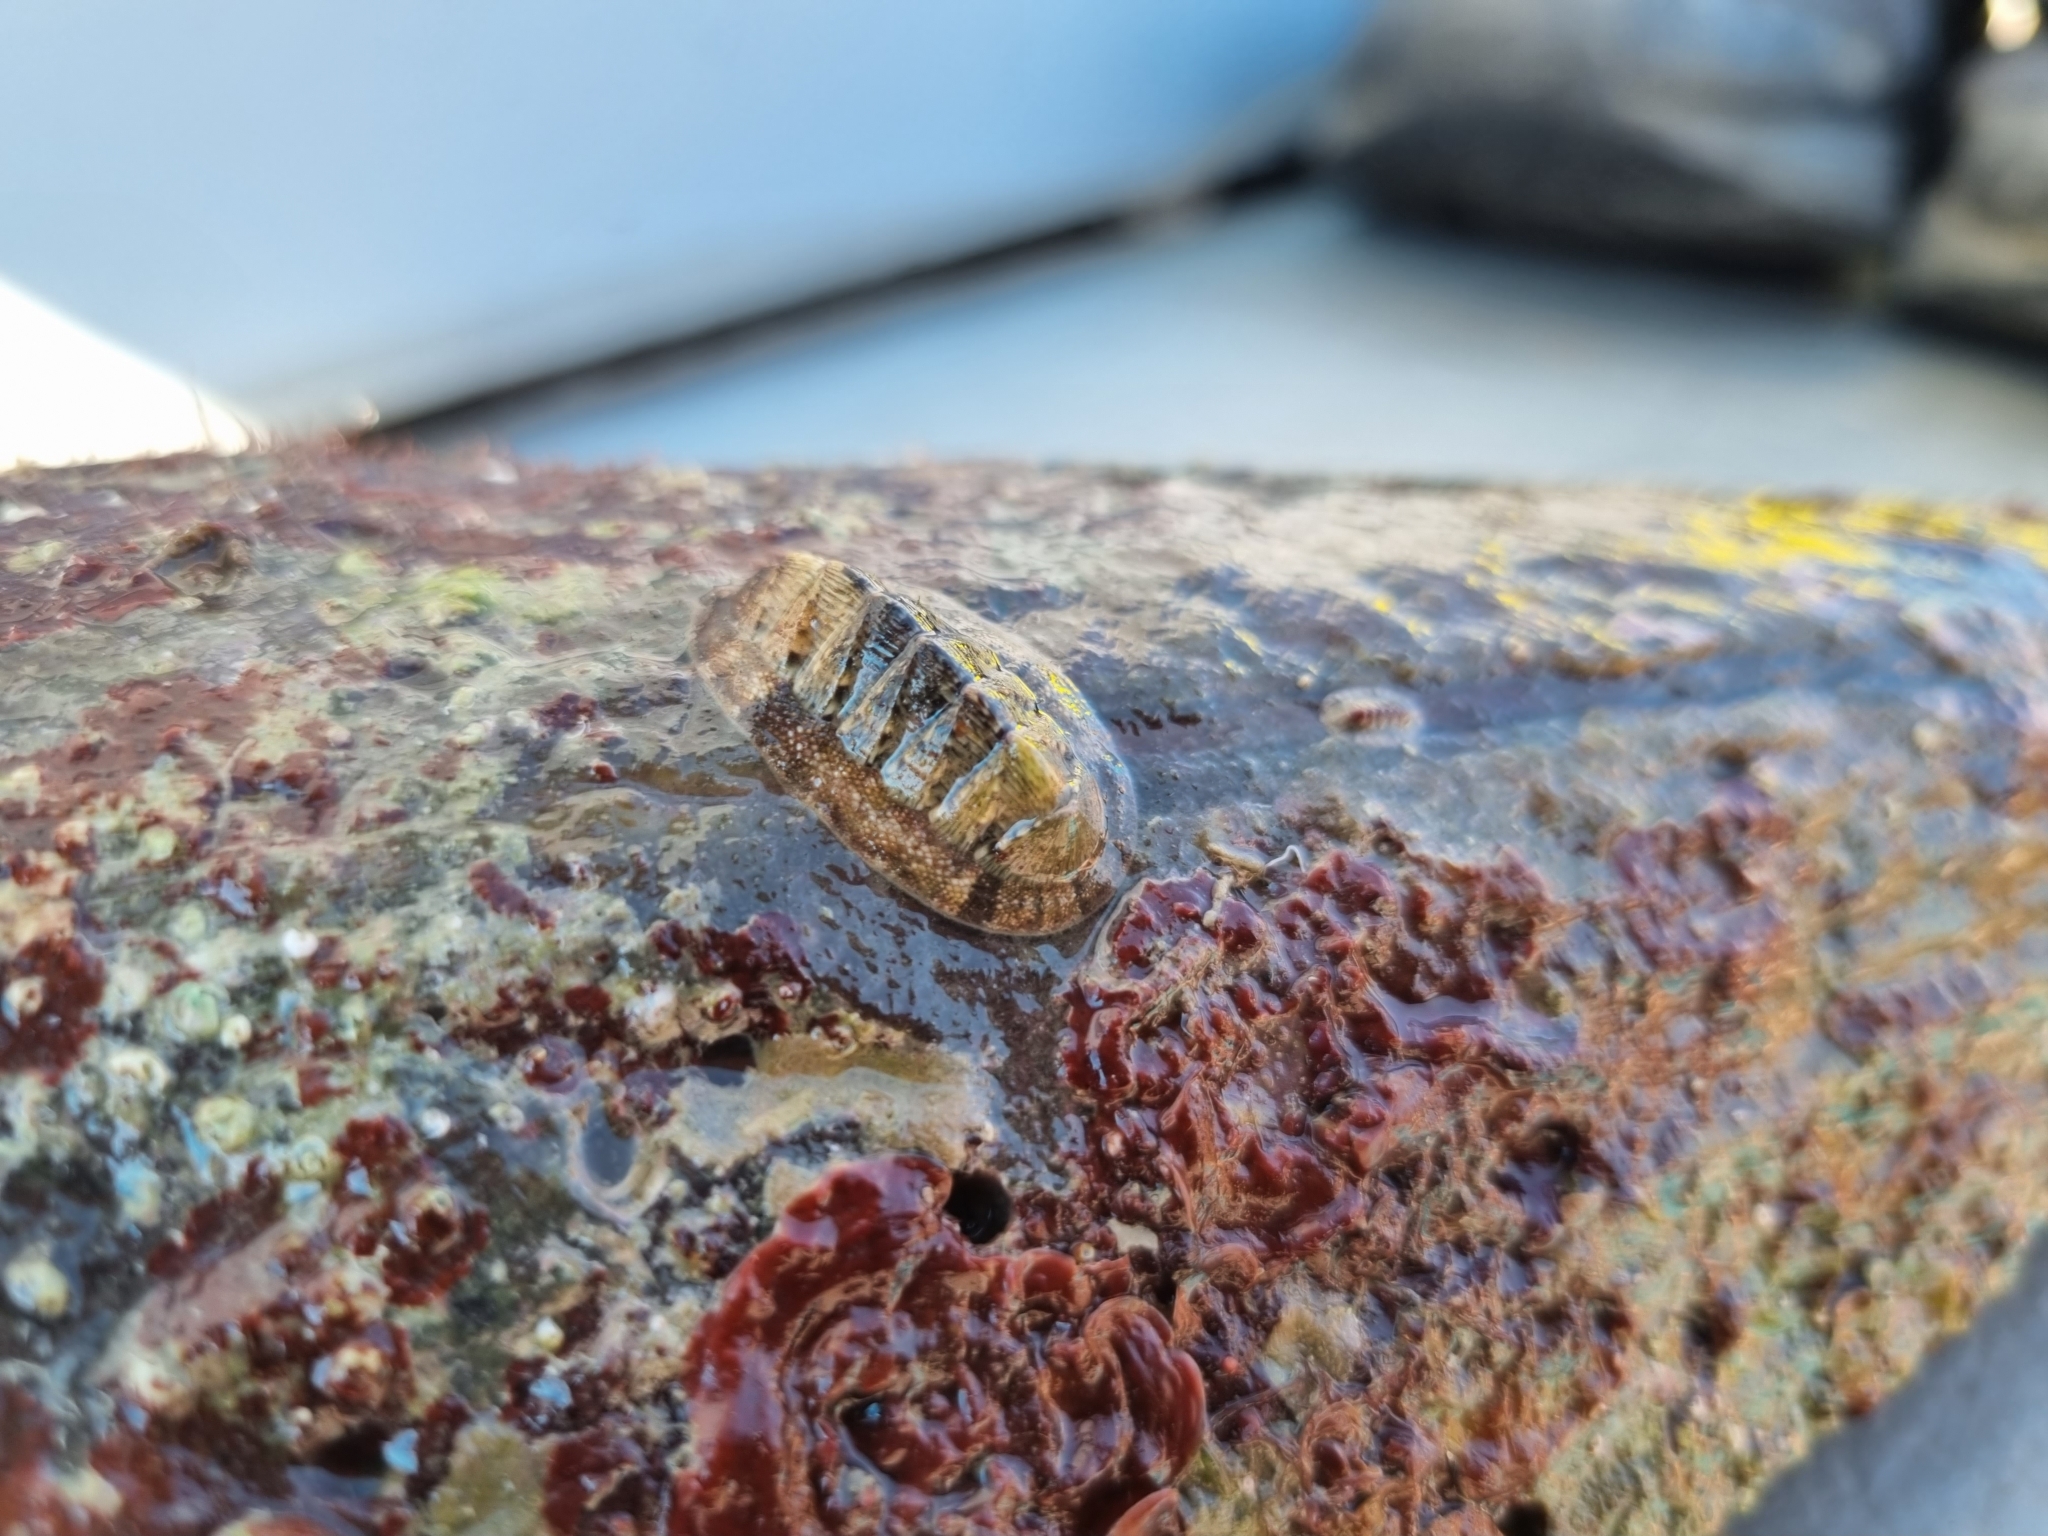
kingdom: Animalia
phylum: Mollusca
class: Polyplacophora
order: Chitonida
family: Chitonidae
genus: Rhyssoplax
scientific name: Rhyssoplax olivacea
